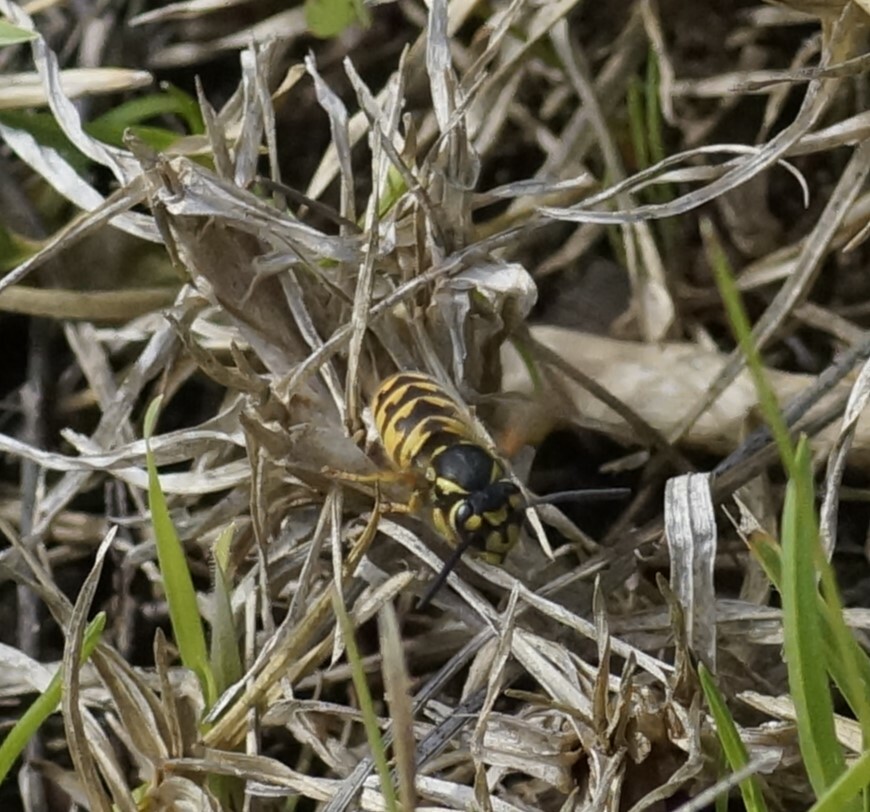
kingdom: Animalia
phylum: Arthropoda
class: Insecta
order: Hymenoptera
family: Vespidae
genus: Vespula
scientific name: Vespula germanica
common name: German wasp
